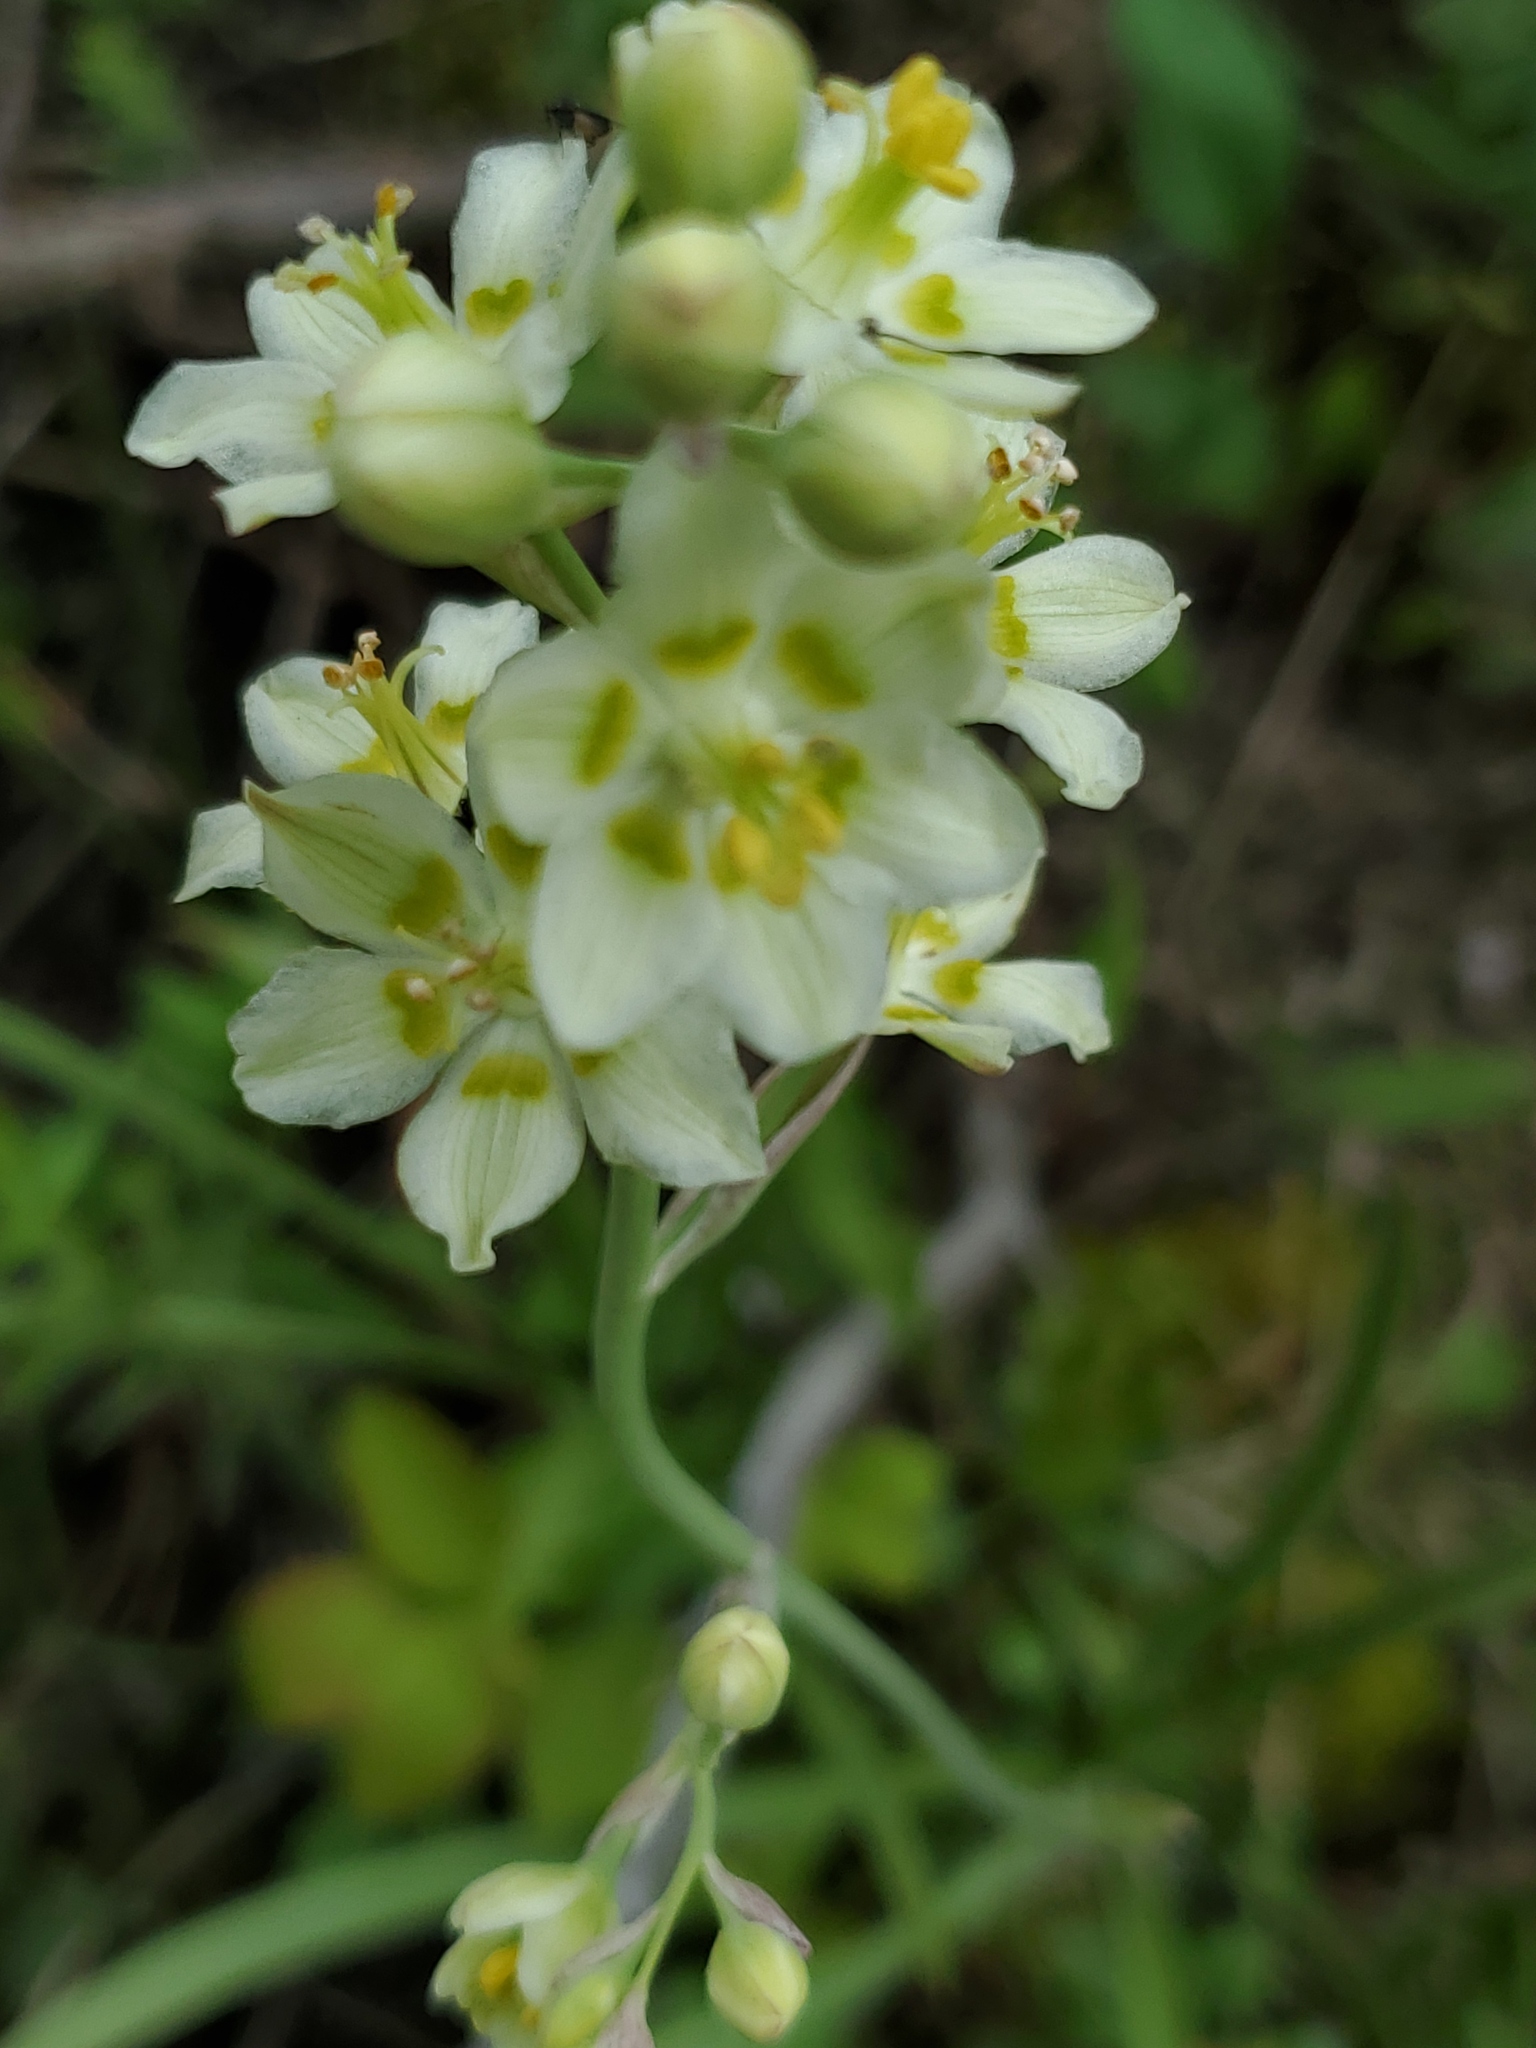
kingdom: Plantae
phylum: Tracheophyta
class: Liliopsida
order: Liliales
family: Melanthiaceae
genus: Anticlea
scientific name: Anticlea elegans
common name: Mountain death camas
